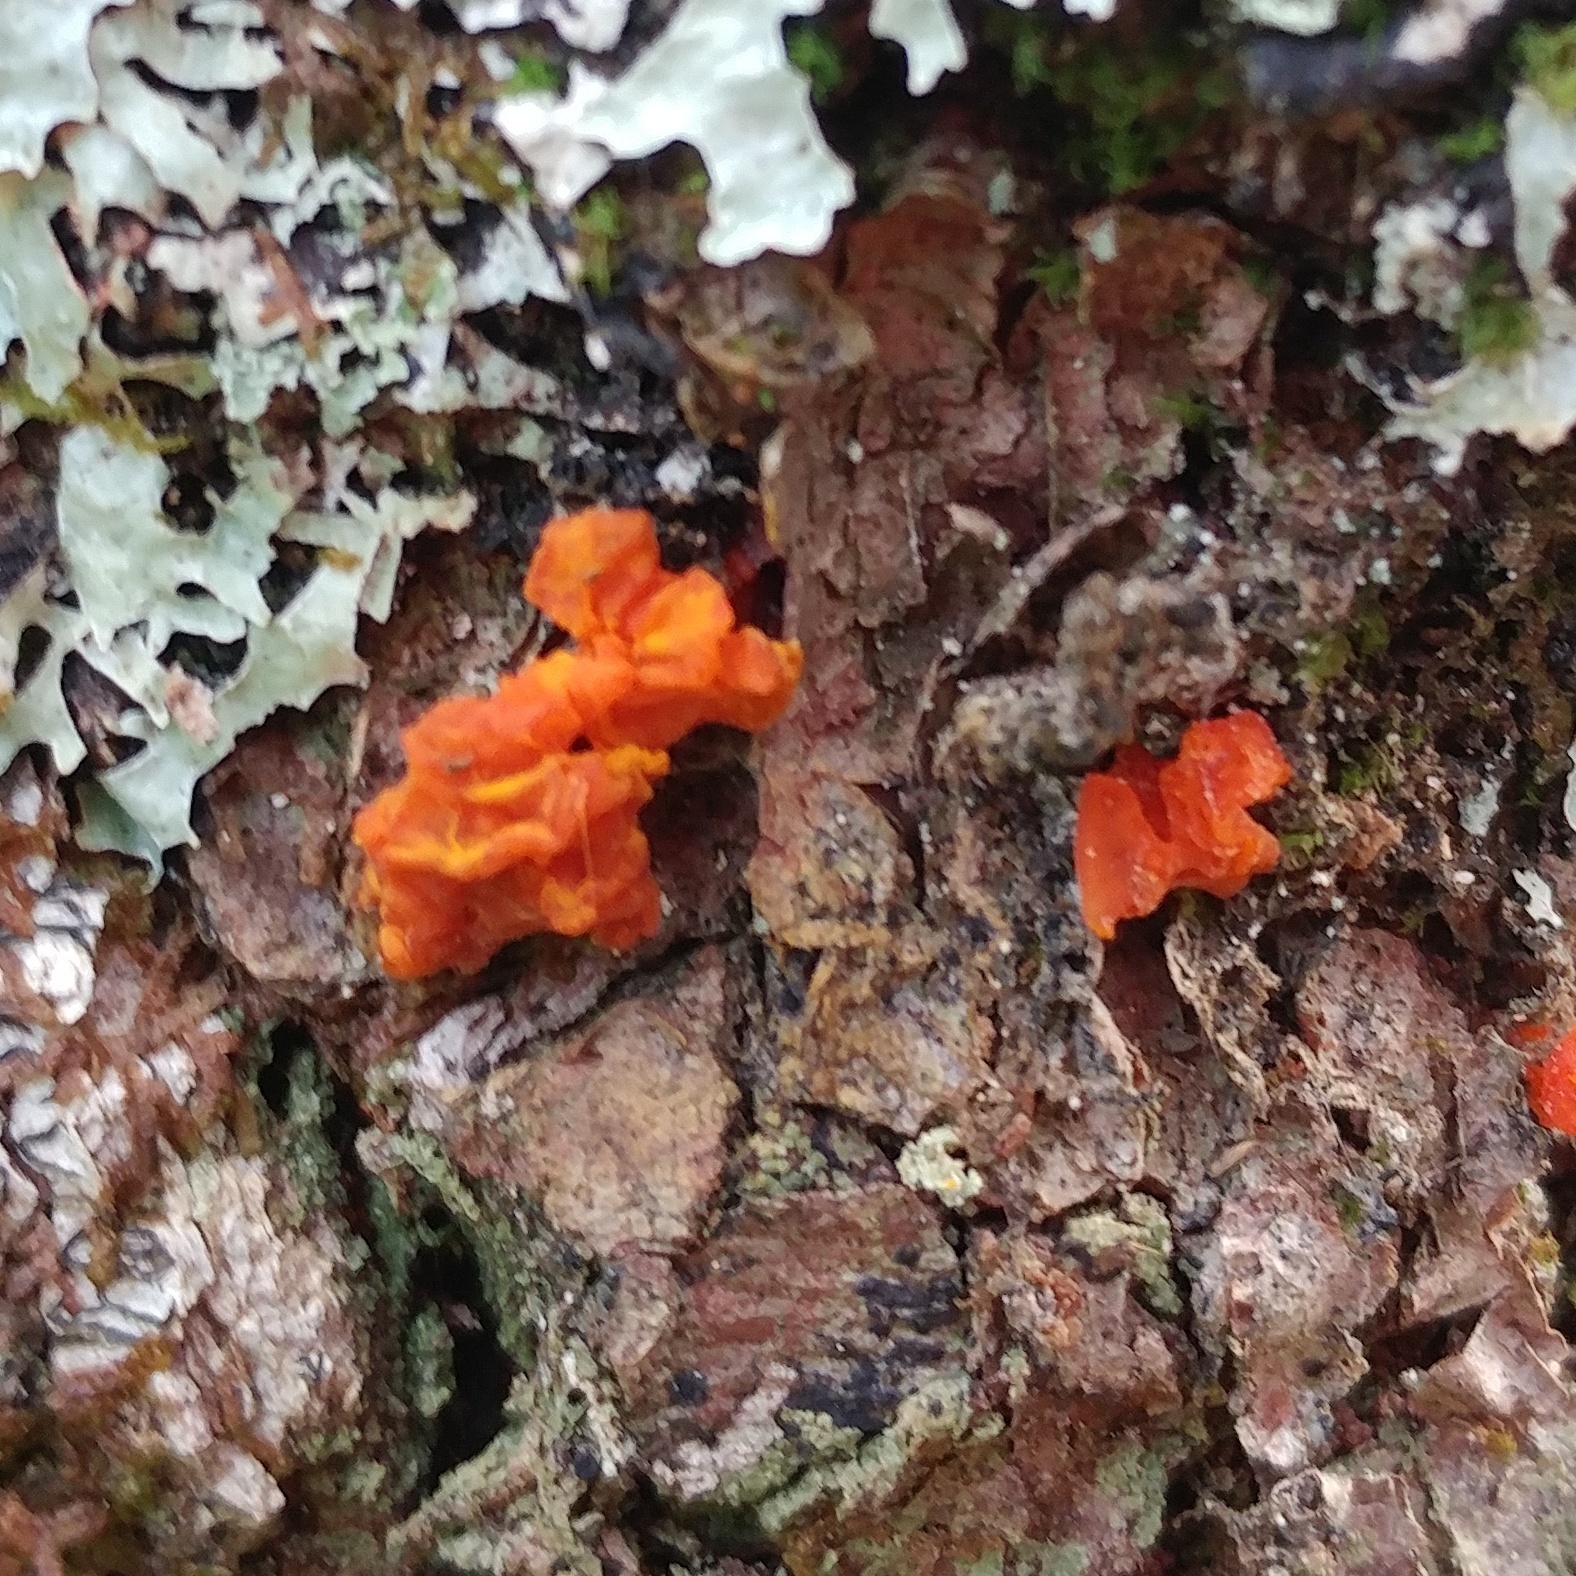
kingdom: Fungi
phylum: Basidiomycota
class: Dacrymycetes
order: Dacrymycetales
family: Dacrymycetaceae
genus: Dacrymyces
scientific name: Dacrymyces chrysospermus
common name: Orange jelly spot
